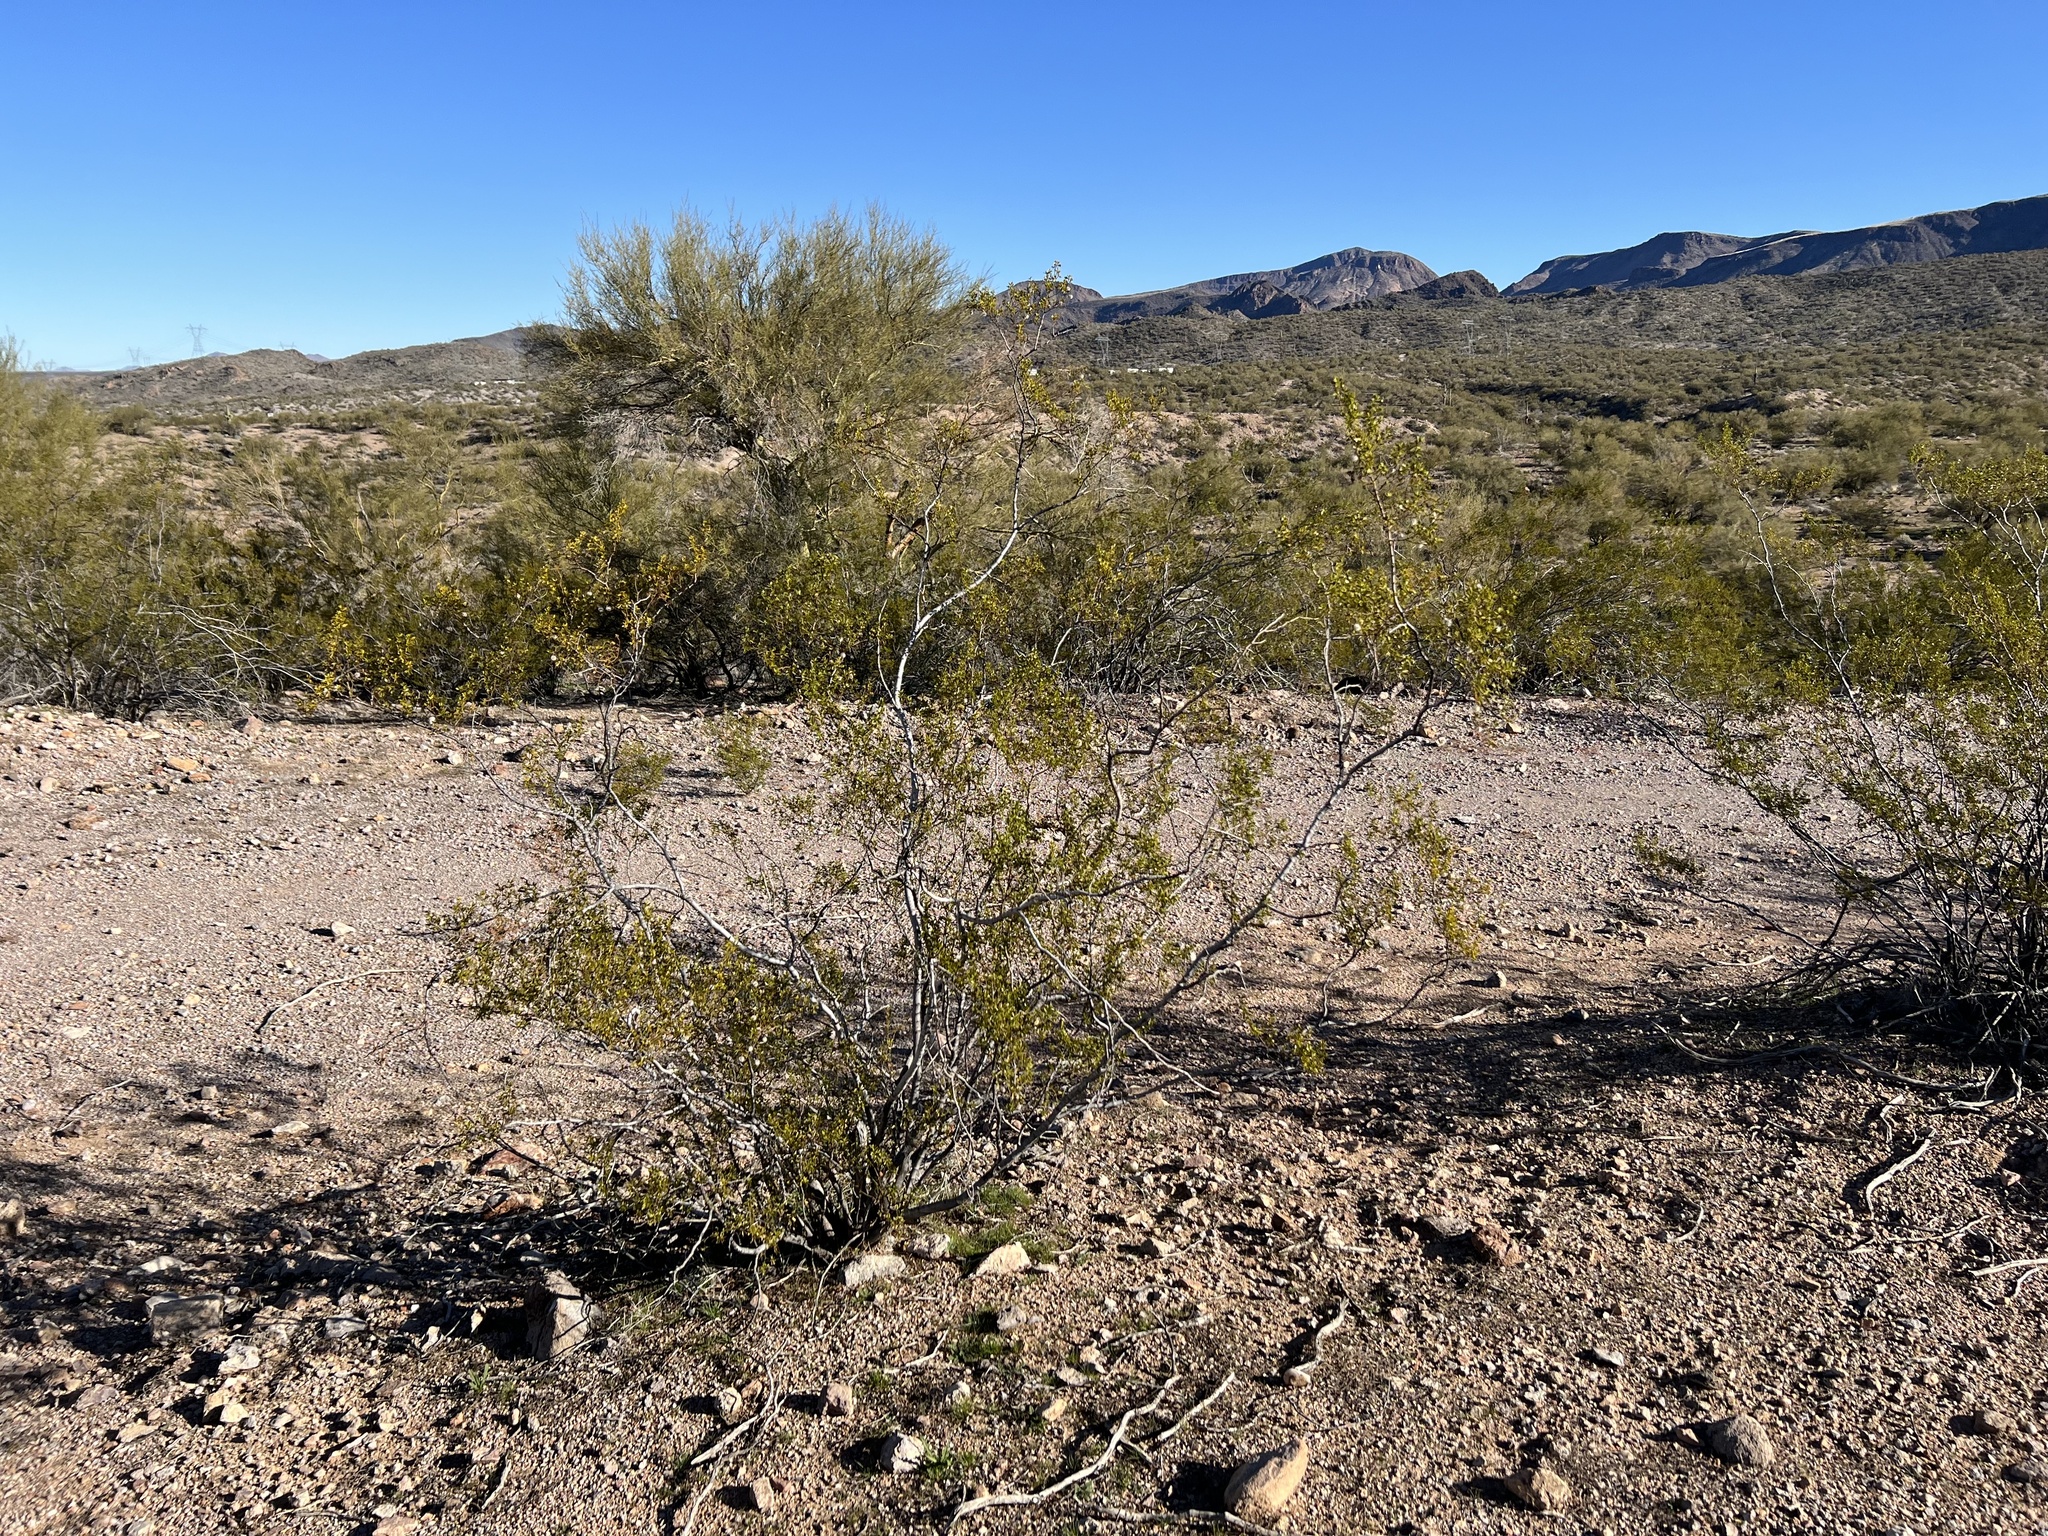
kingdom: Plantae
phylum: Tracheophyta
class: Magnoliopsida
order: Zygophyllales
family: Zygophyllaceae
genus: Larrea
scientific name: Larrea tridentata
